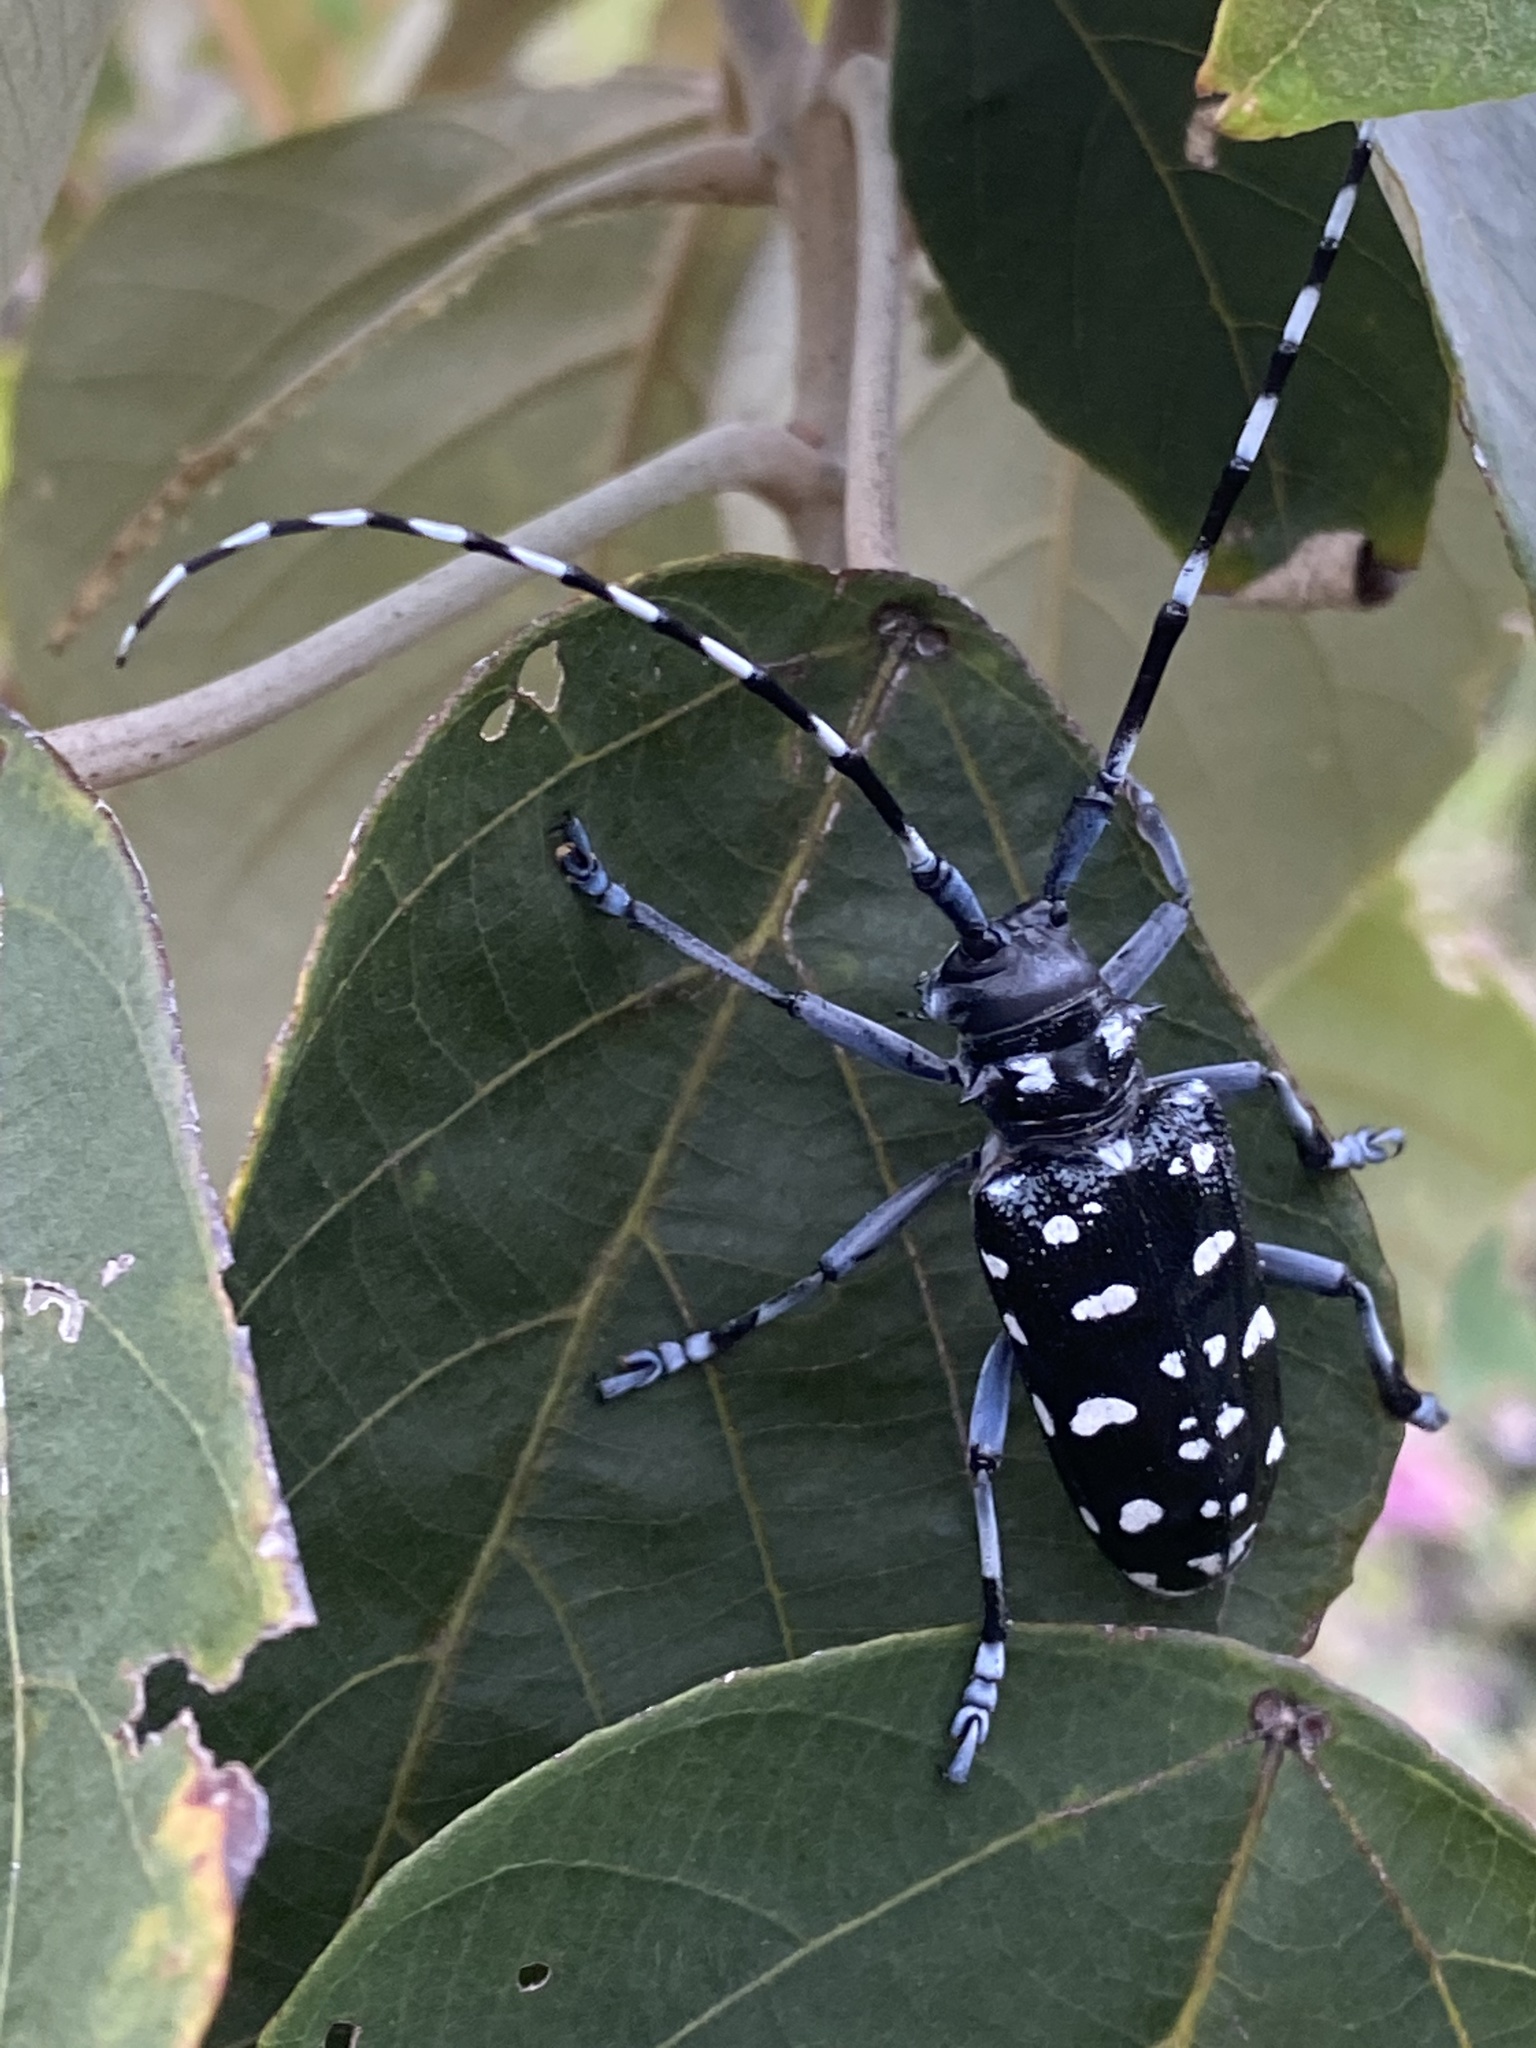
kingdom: Animalia
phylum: Arthropoda
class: Insecta
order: Coleoptera
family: Cerambycidae
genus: Anoplophora
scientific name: Anoplophora macularia
